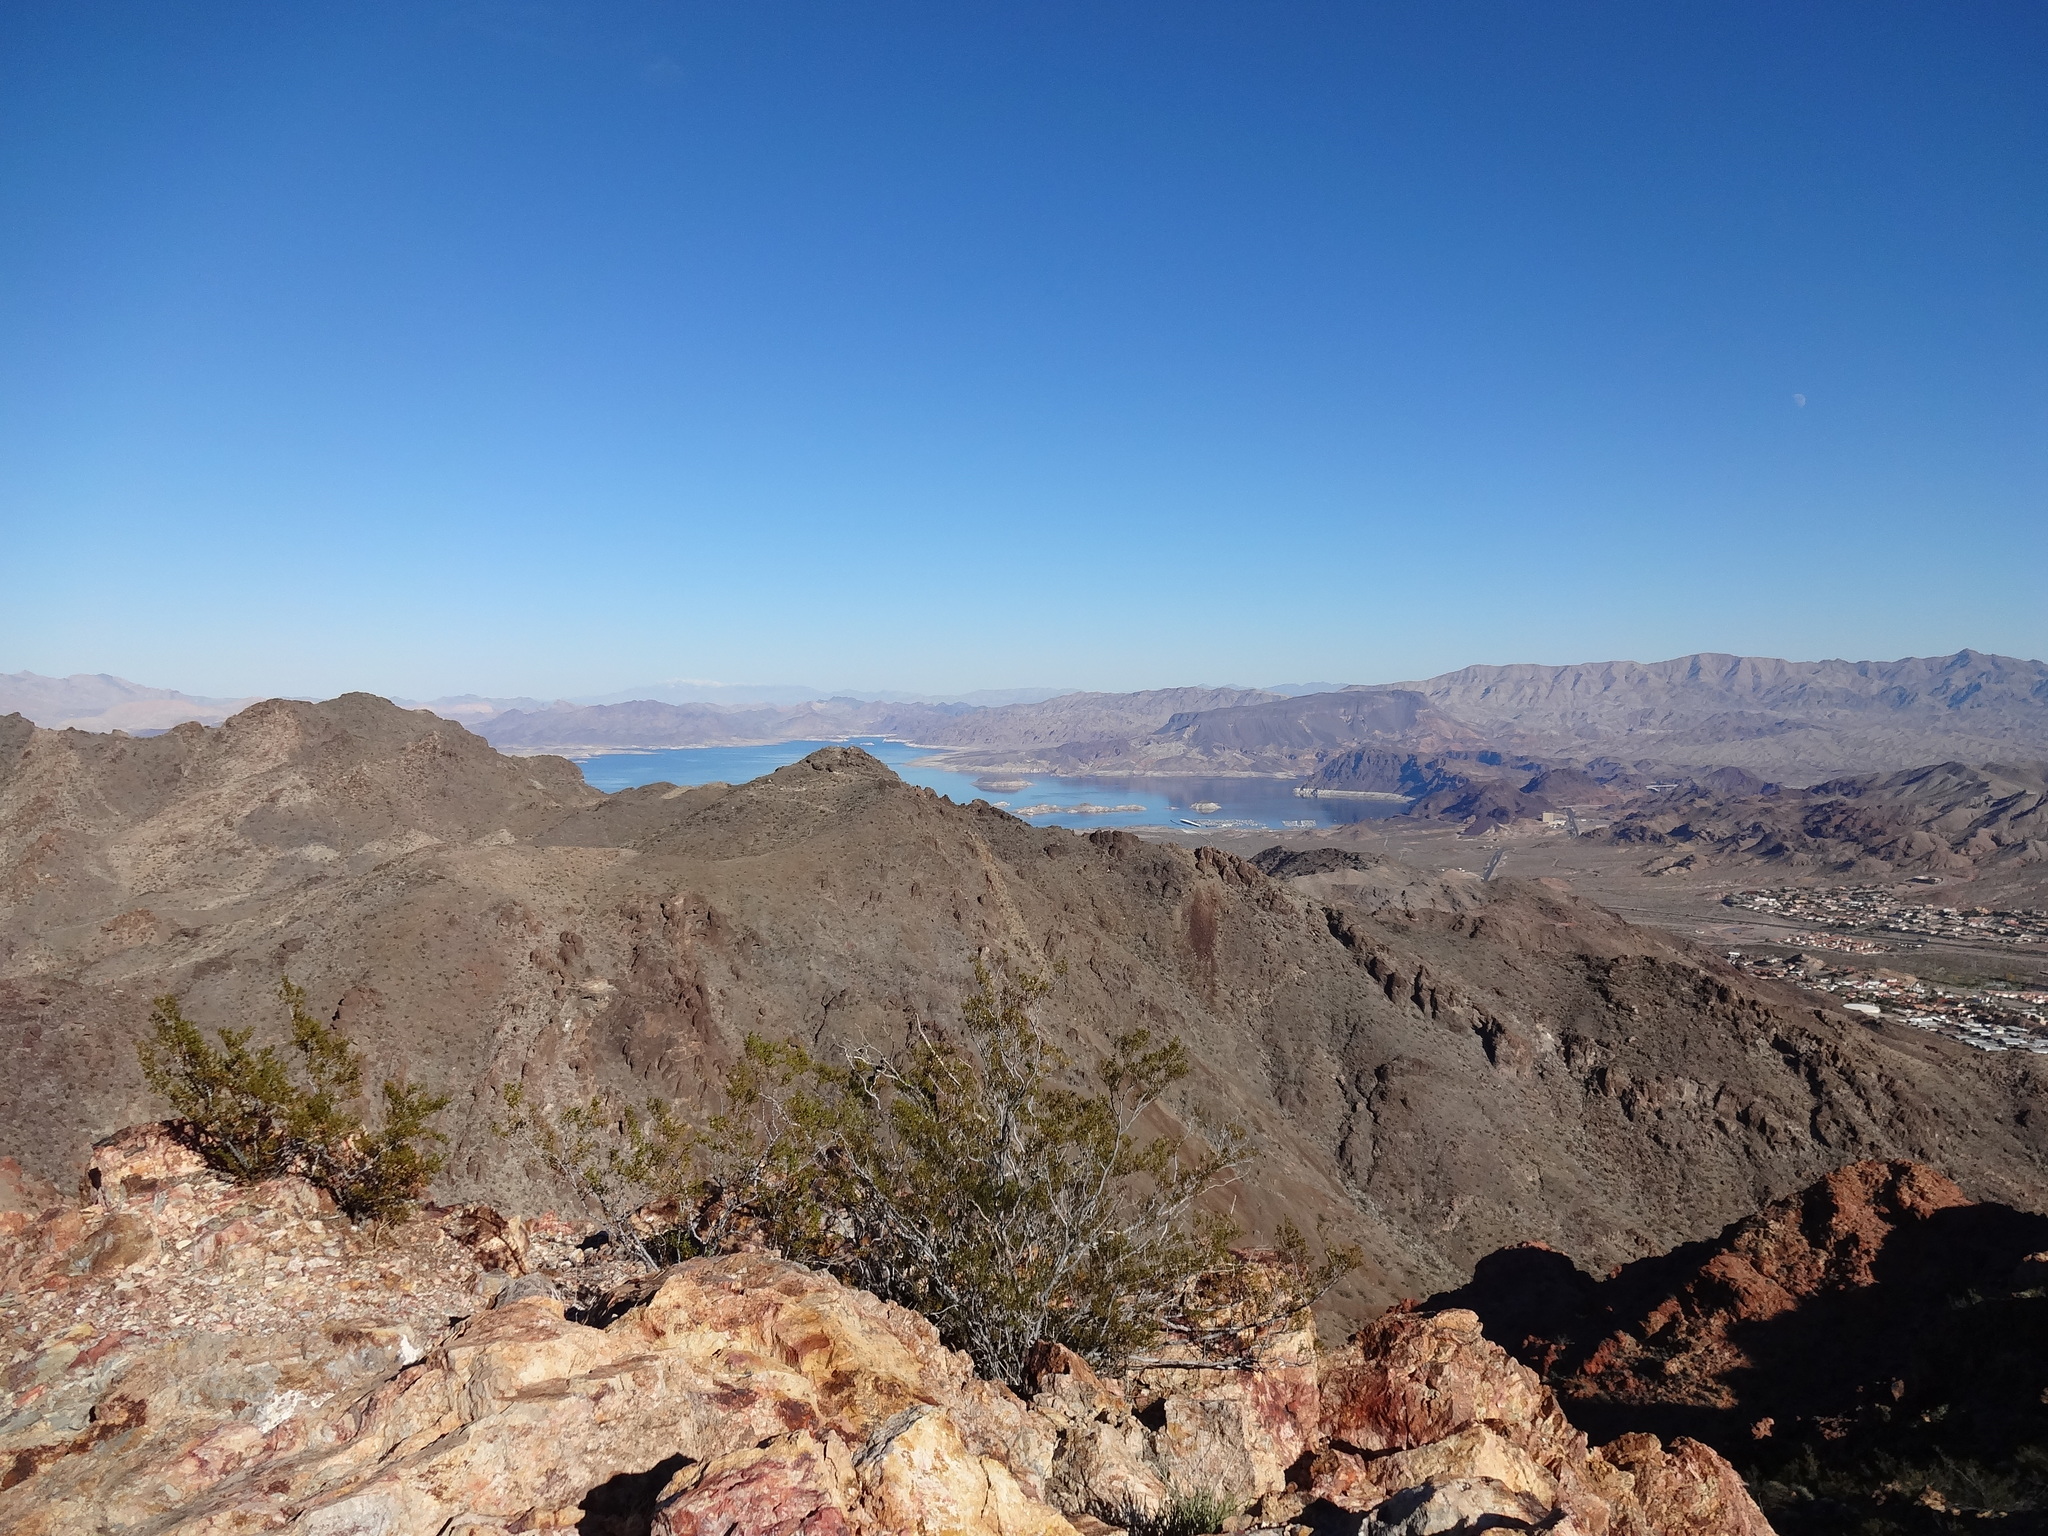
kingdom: Plantae
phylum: Tracheophyta
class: Magnoliopsida
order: Zygophyllales
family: Zygophyllaceae
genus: Larrea
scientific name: Larrea tridentata
